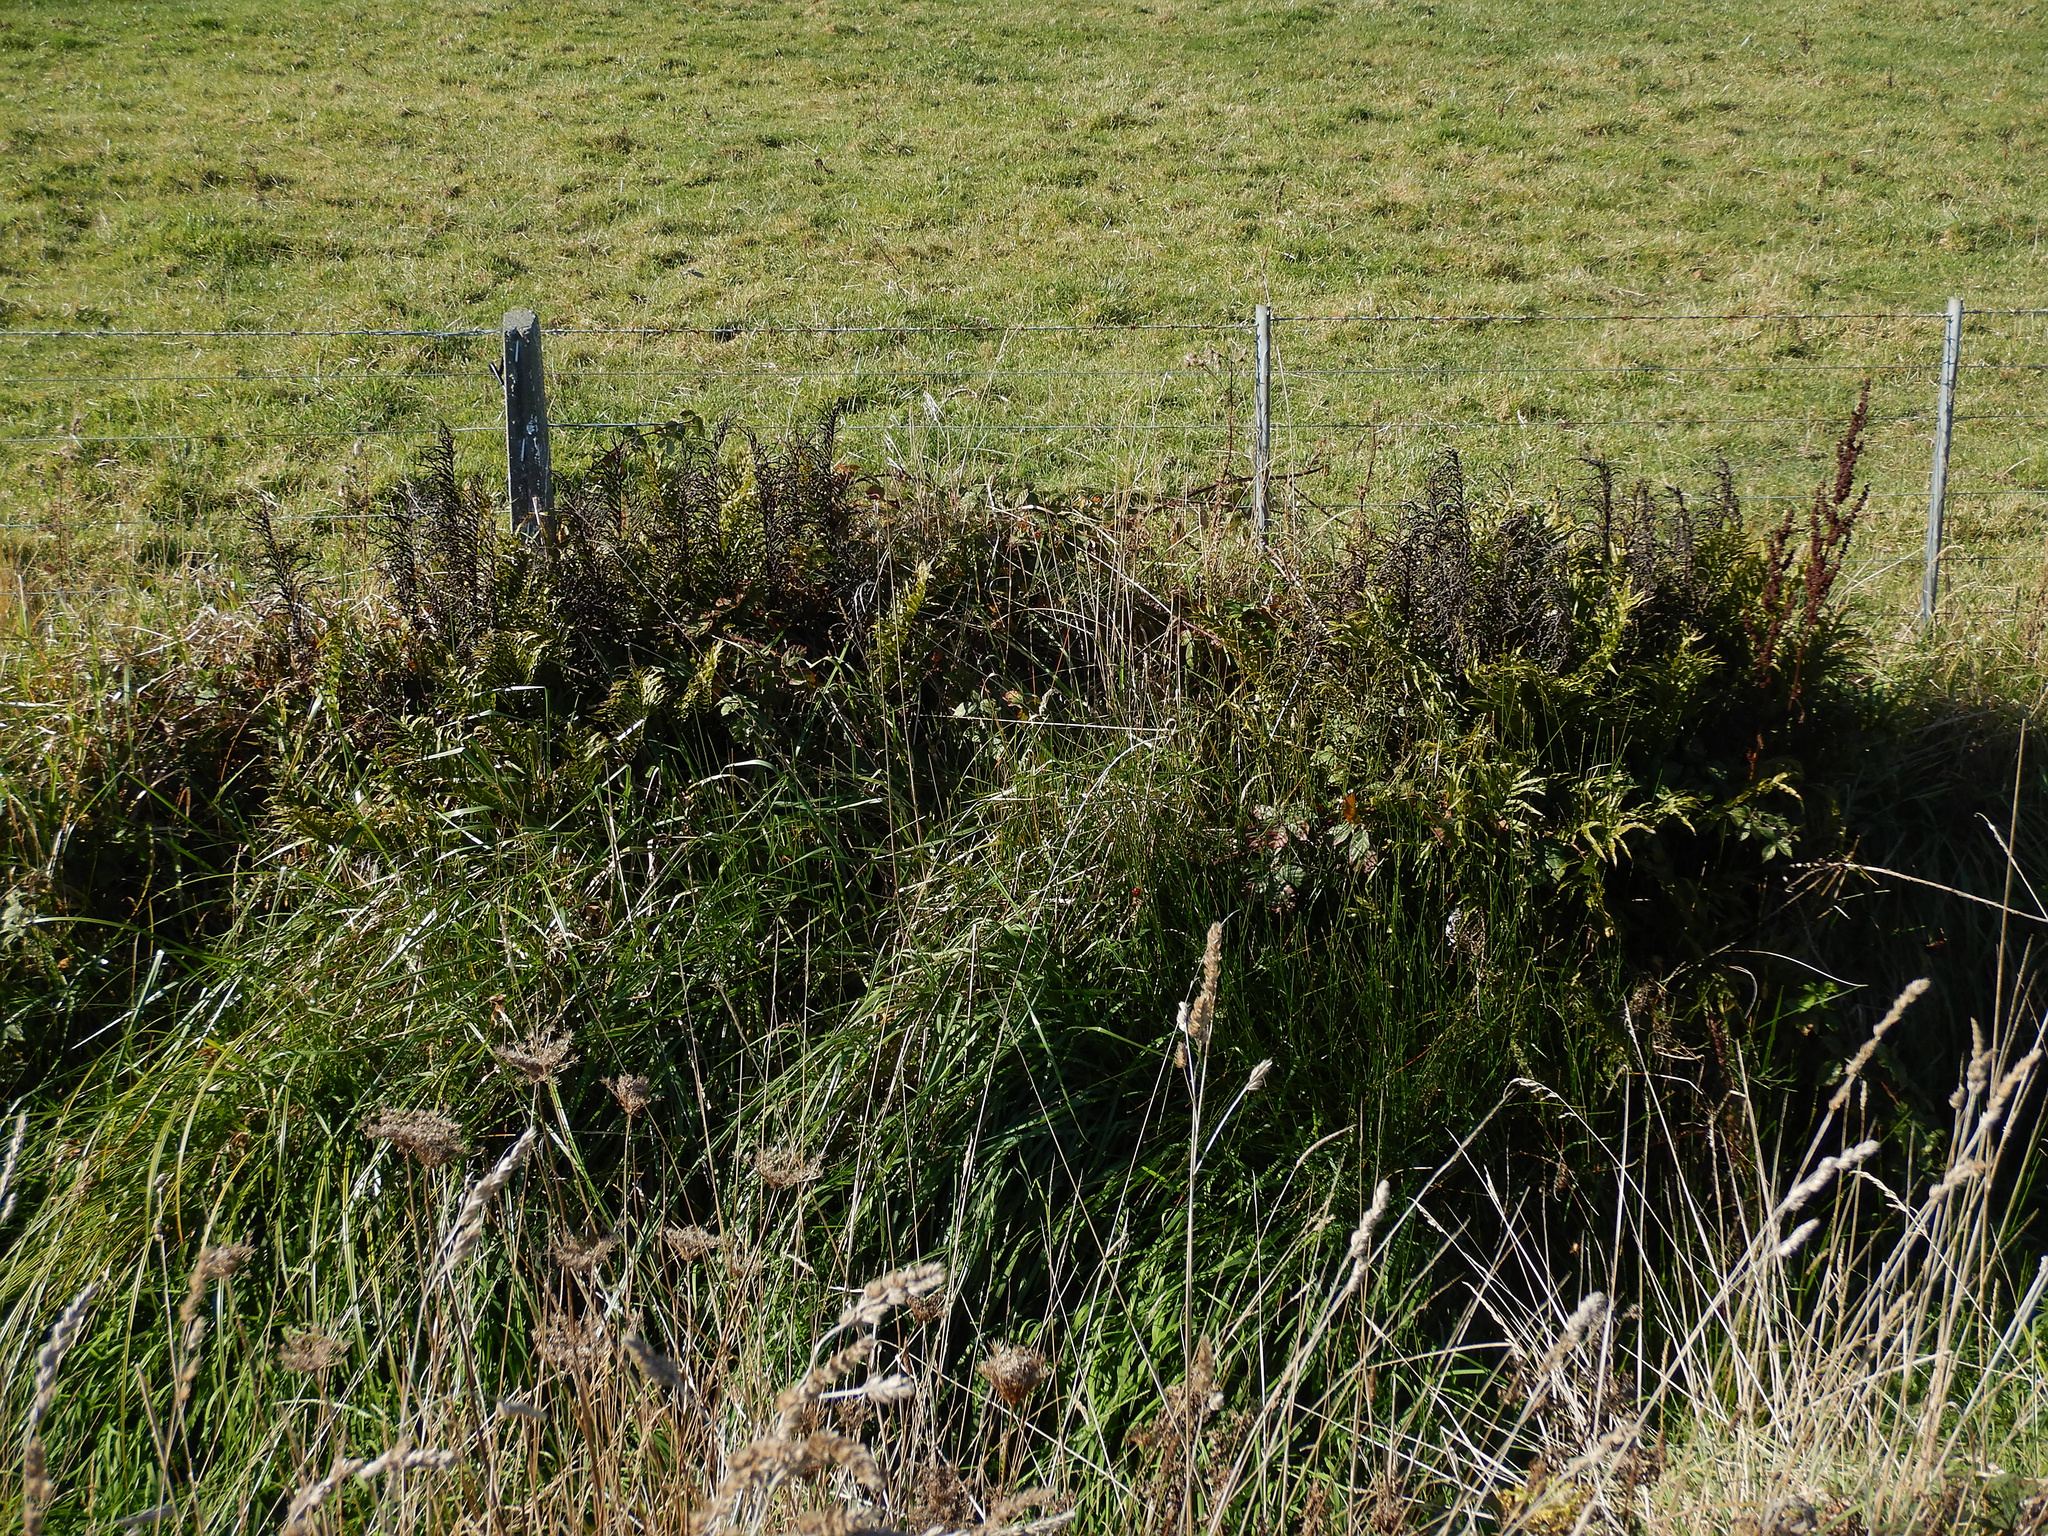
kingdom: Plantae
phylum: Tracheophyta
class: Polypodiopsida
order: Polypodiales
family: Blechnaceae
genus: Parablechnum
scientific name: Parablechnum minus
